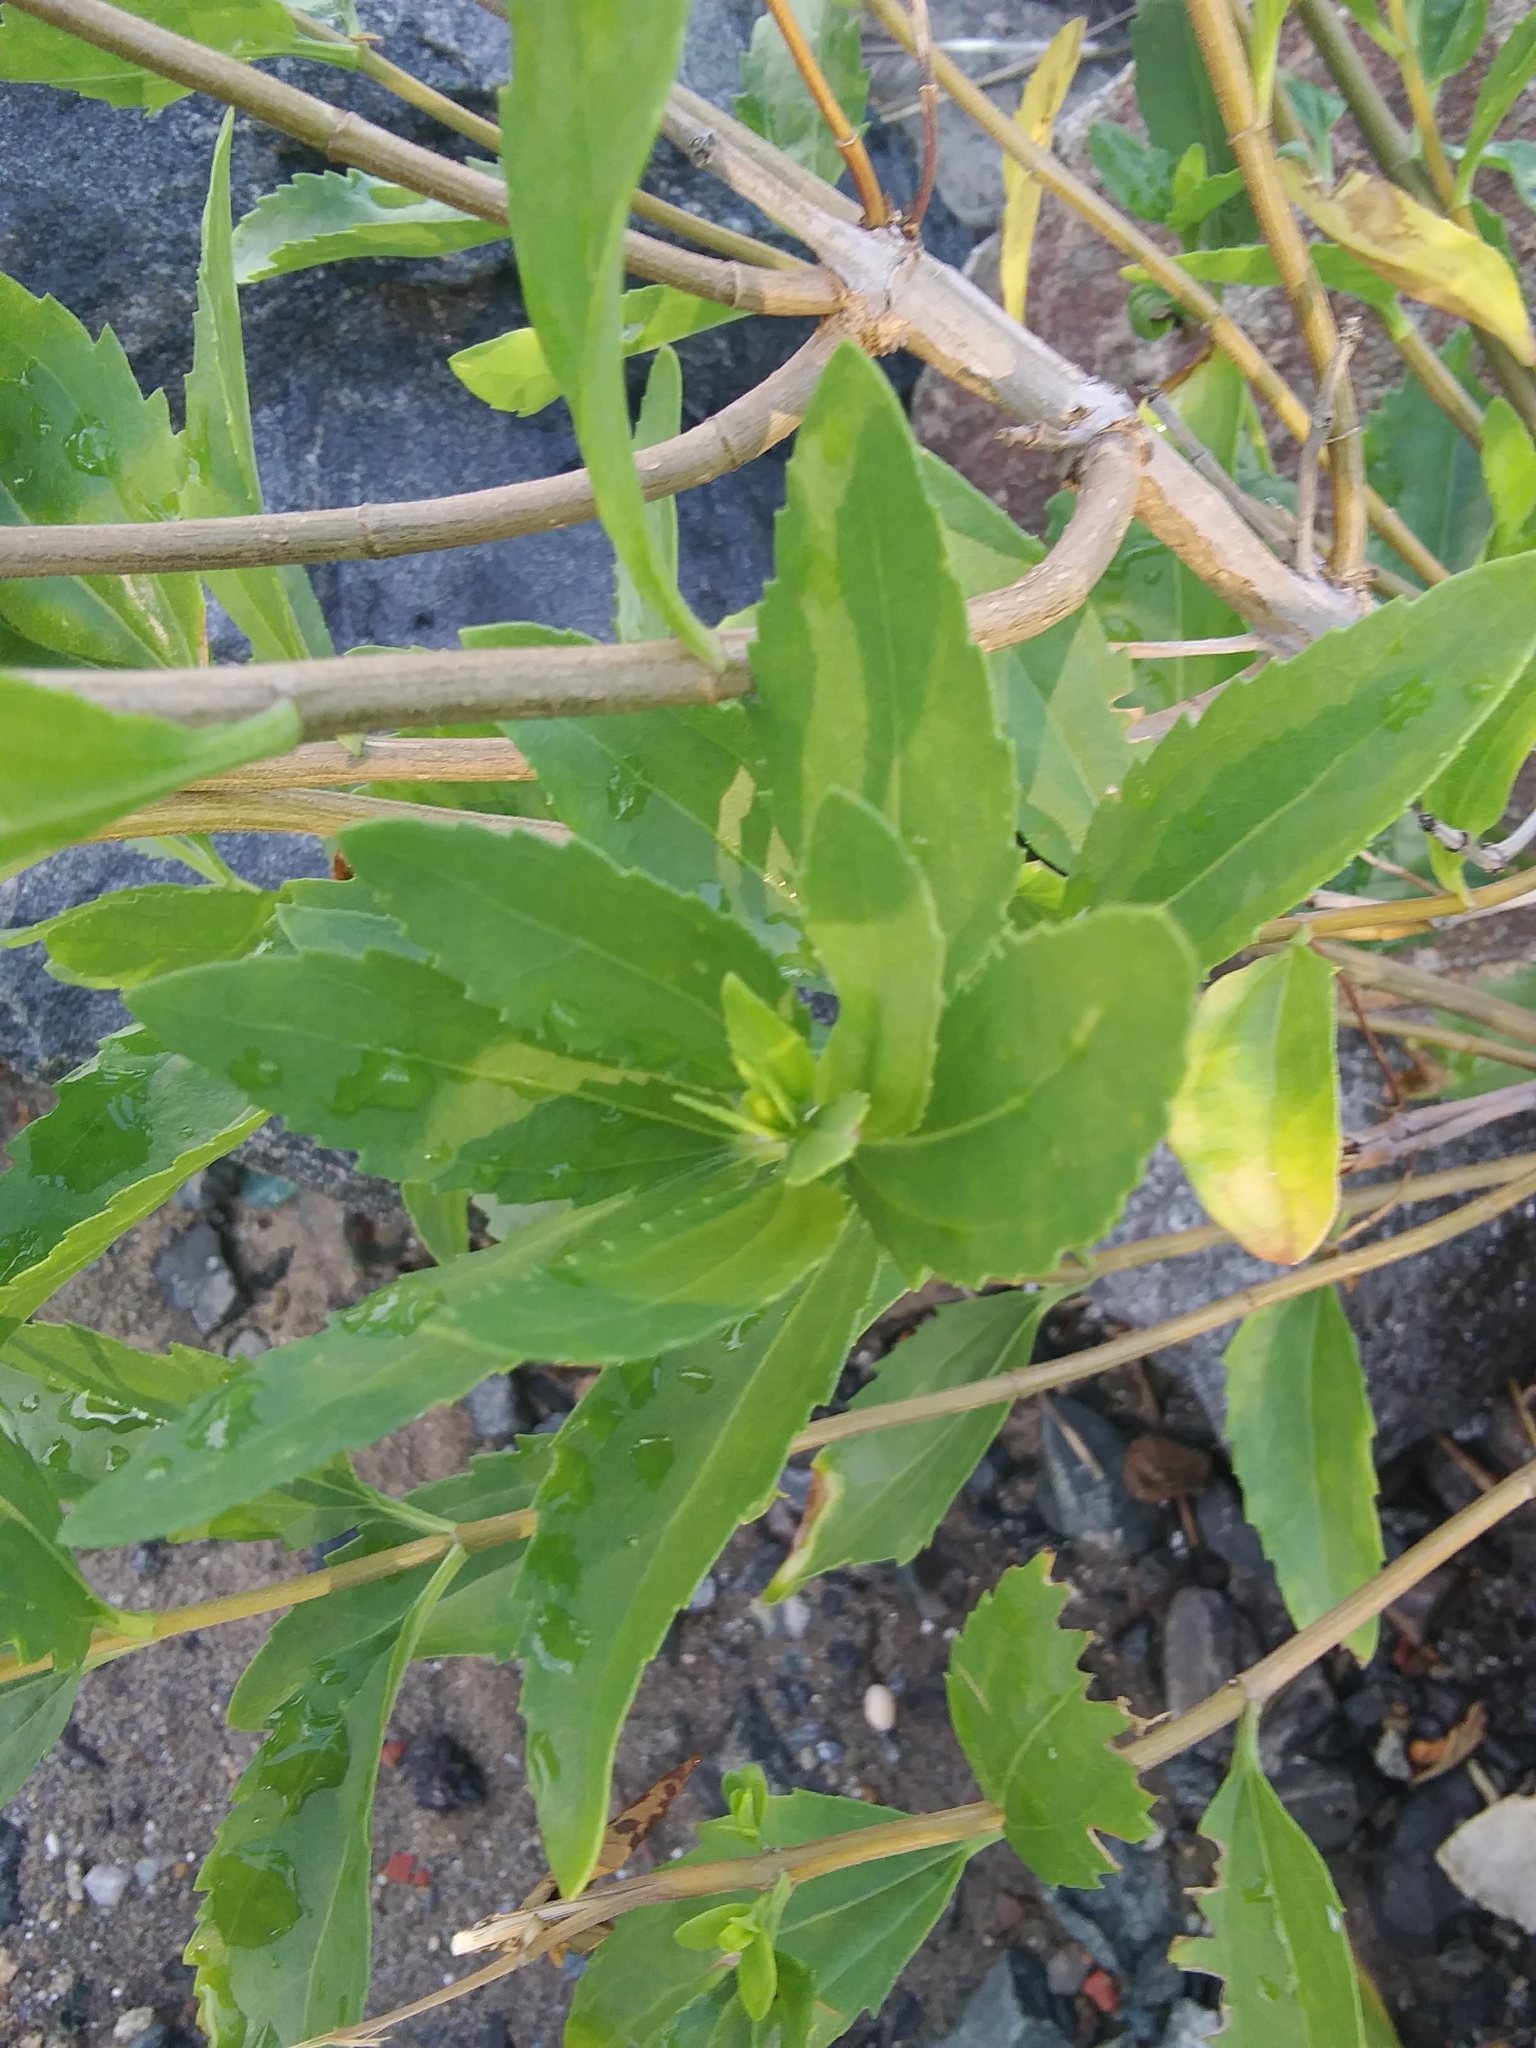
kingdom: Plantae
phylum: Tracheophyta
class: Magnoliopsida
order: Asterales
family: Asteraceae
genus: Iva
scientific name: Iva frutescens
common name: Big-leaved marsh-elder
